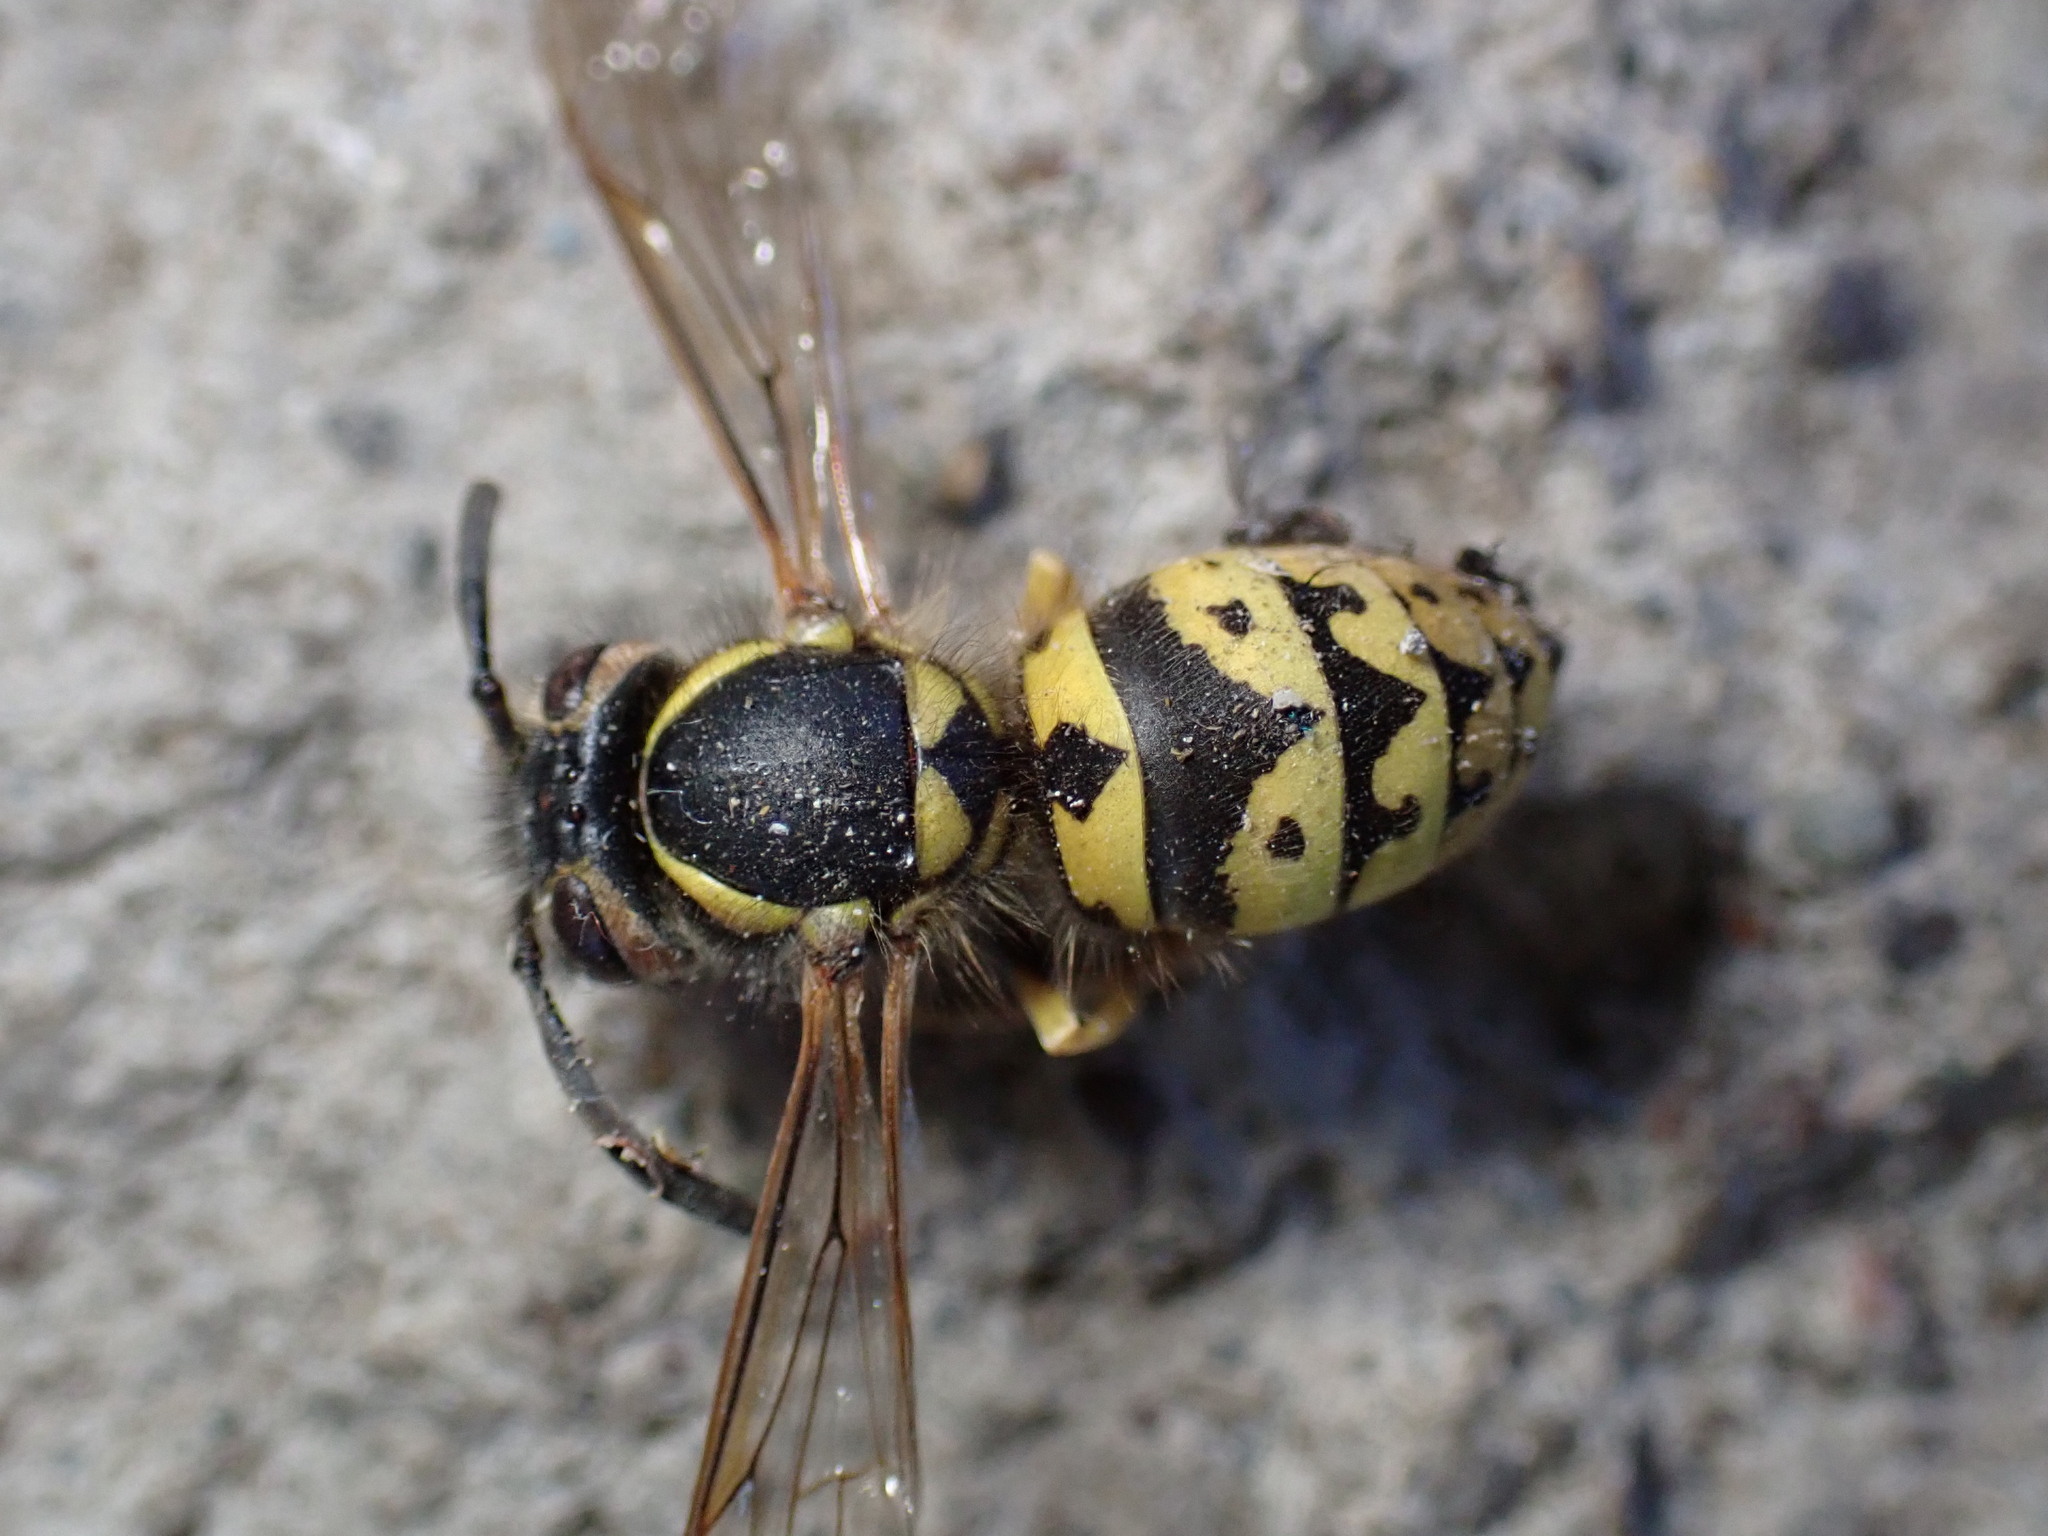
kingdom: Animalia
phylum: Arthropoda
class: Insecta
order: Hymenoptera
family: Vespidae
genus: Vespula
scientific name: Vespula pensylvanica
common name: Western yellowjacket
